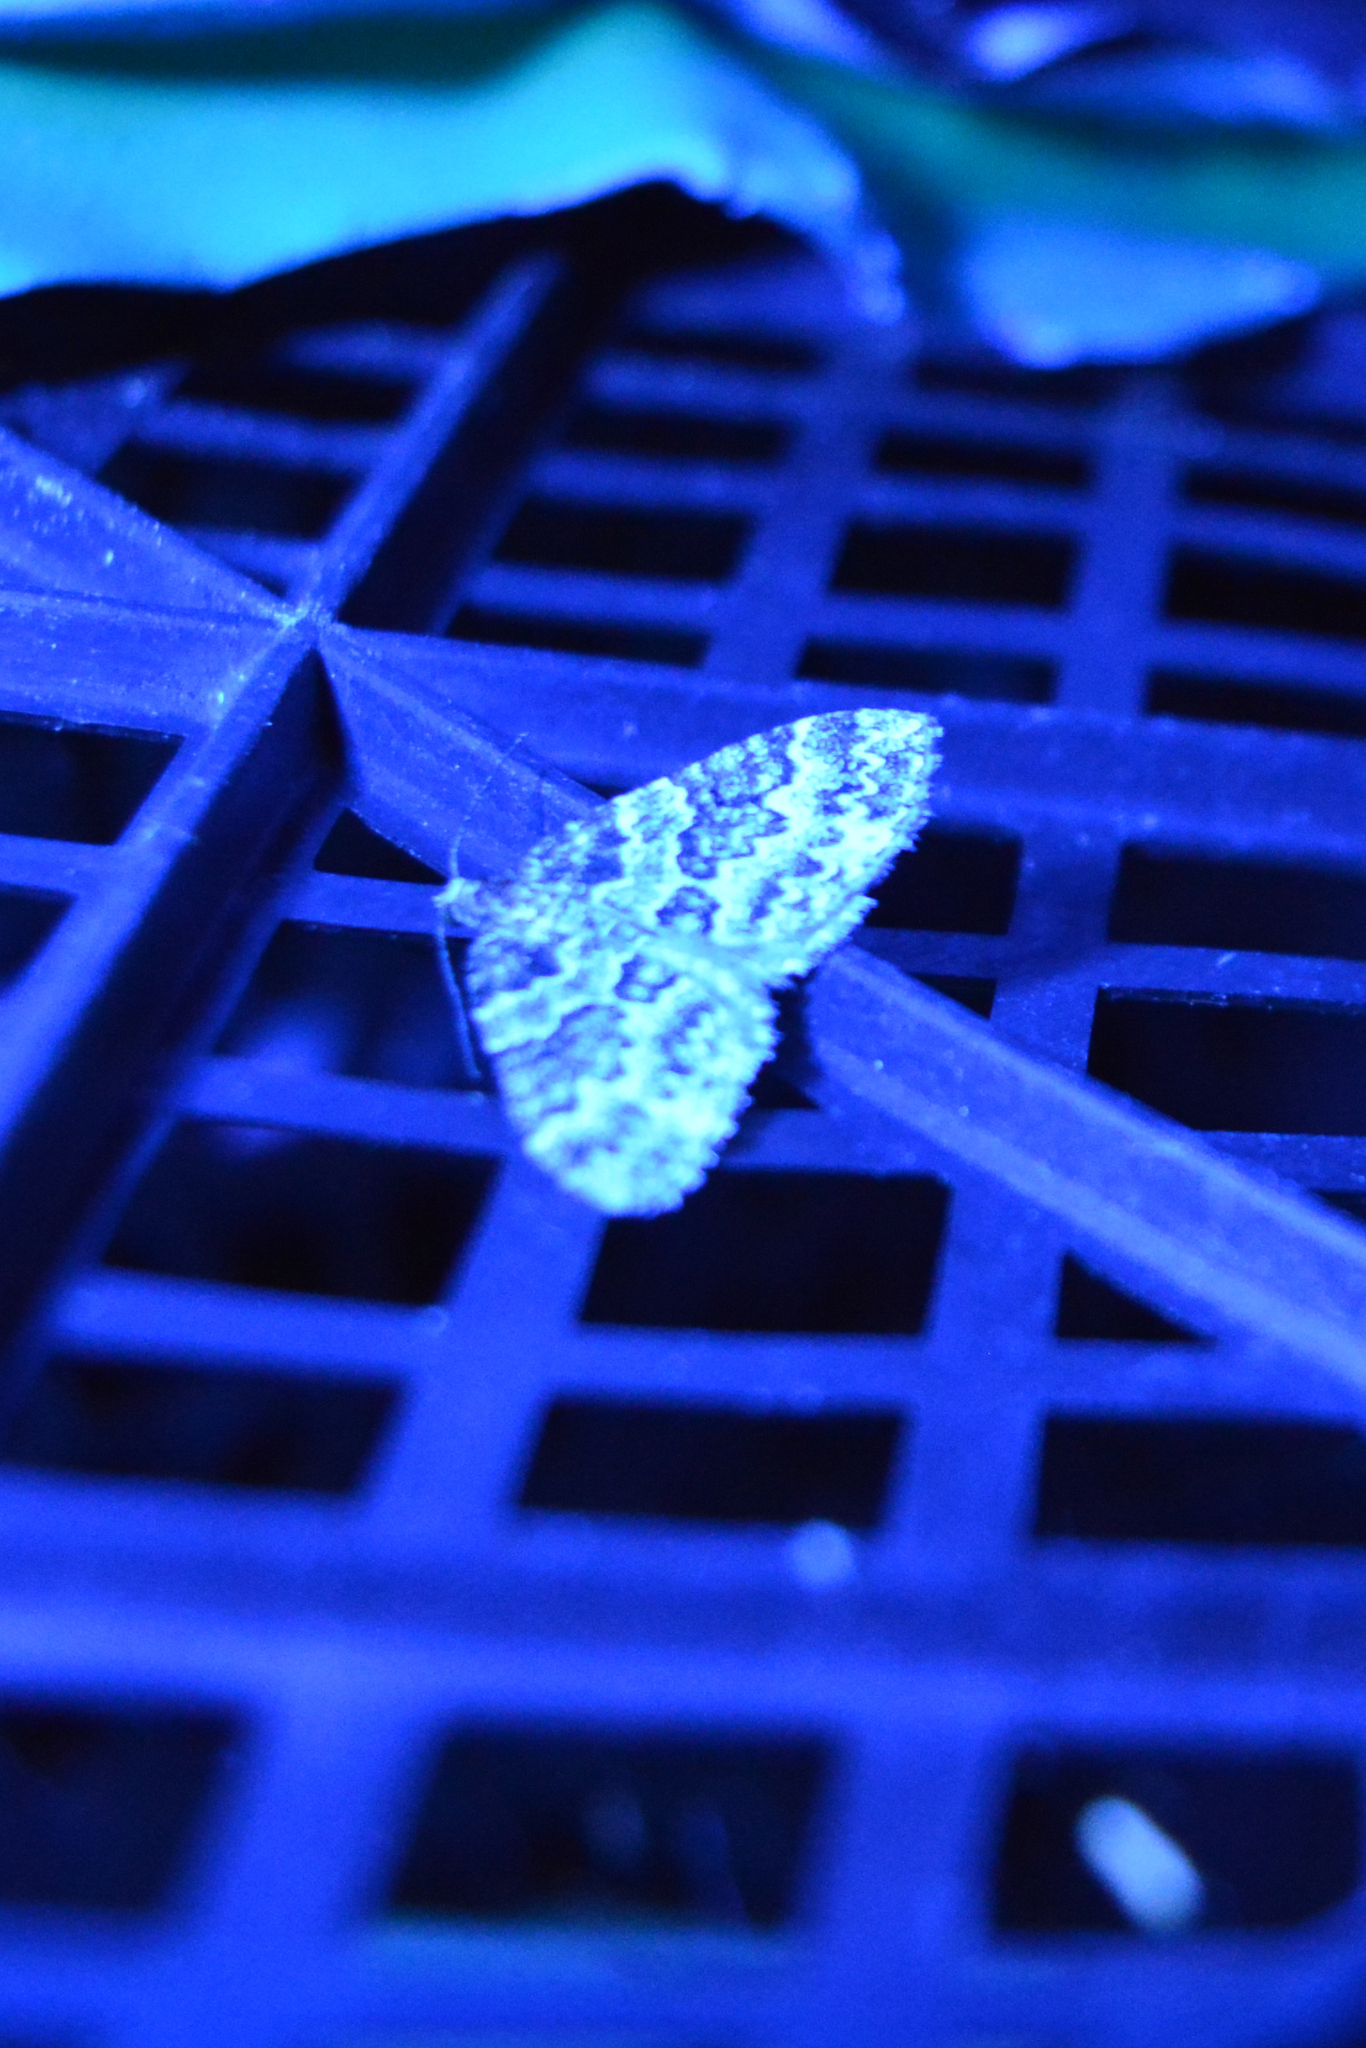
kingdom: Animalia
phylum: Arthropoda
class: Insecta
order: Lepidoptera
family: Geometridae
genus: Electrophaes
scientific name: Electrophaes corylata
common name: Broken-barred carpet
